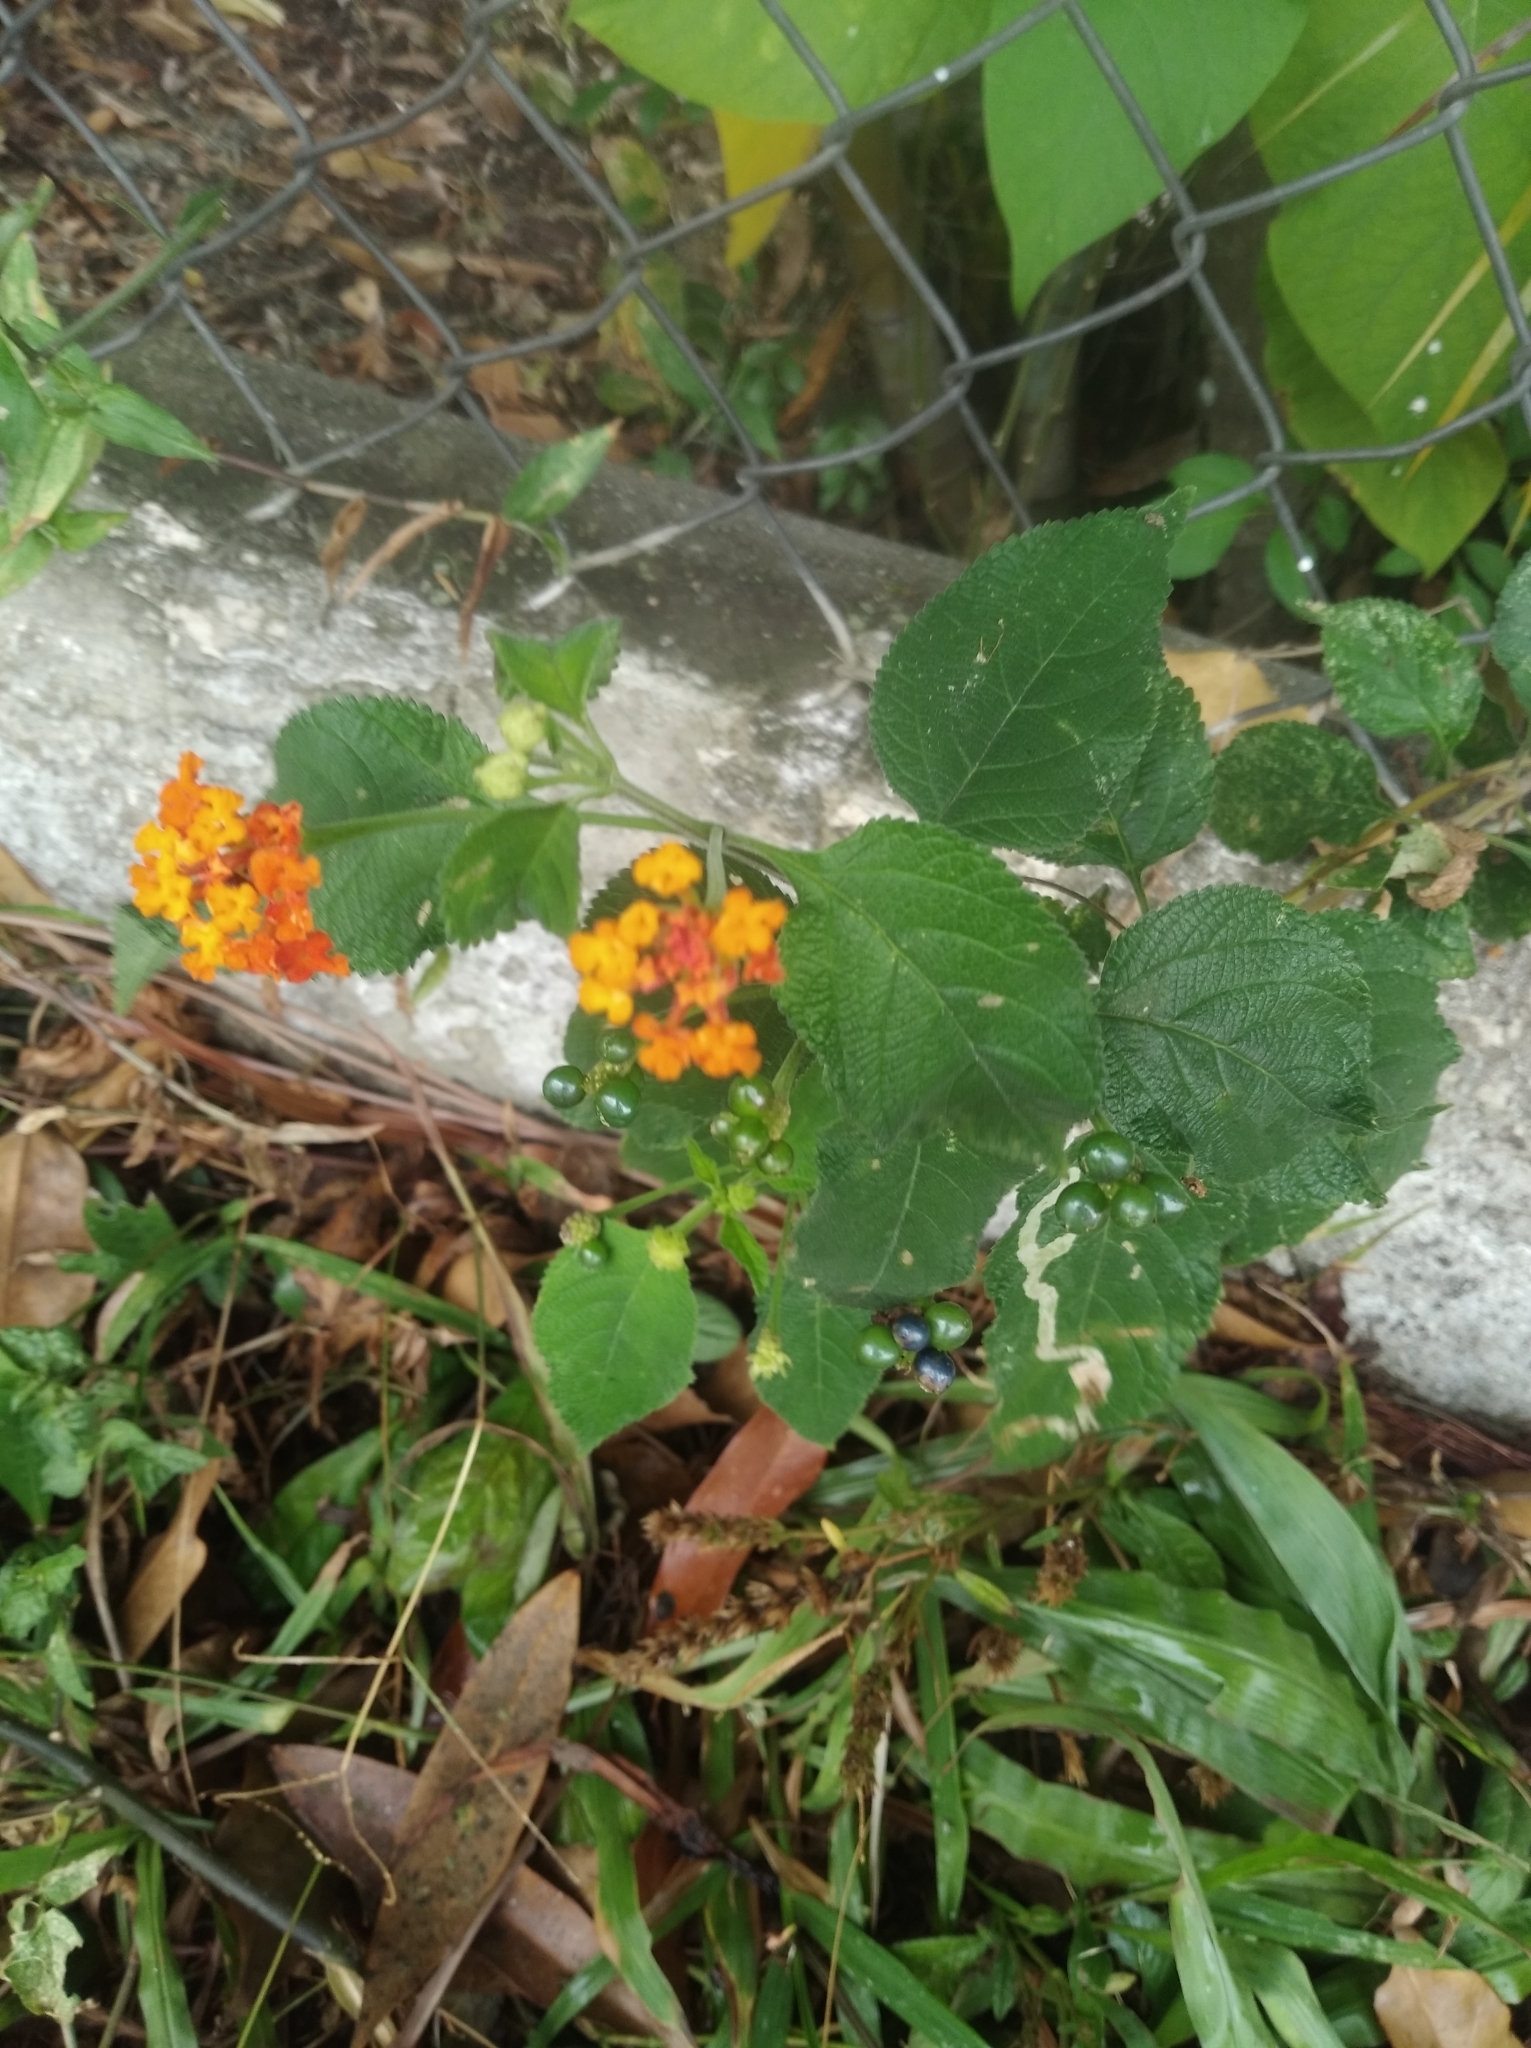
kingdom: Plantae
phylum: Tracheophyta
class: Magnoliopsida
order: Lamiales
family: Verbenaceae
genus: Lantana
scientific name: Lantana camara
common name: Lantana
